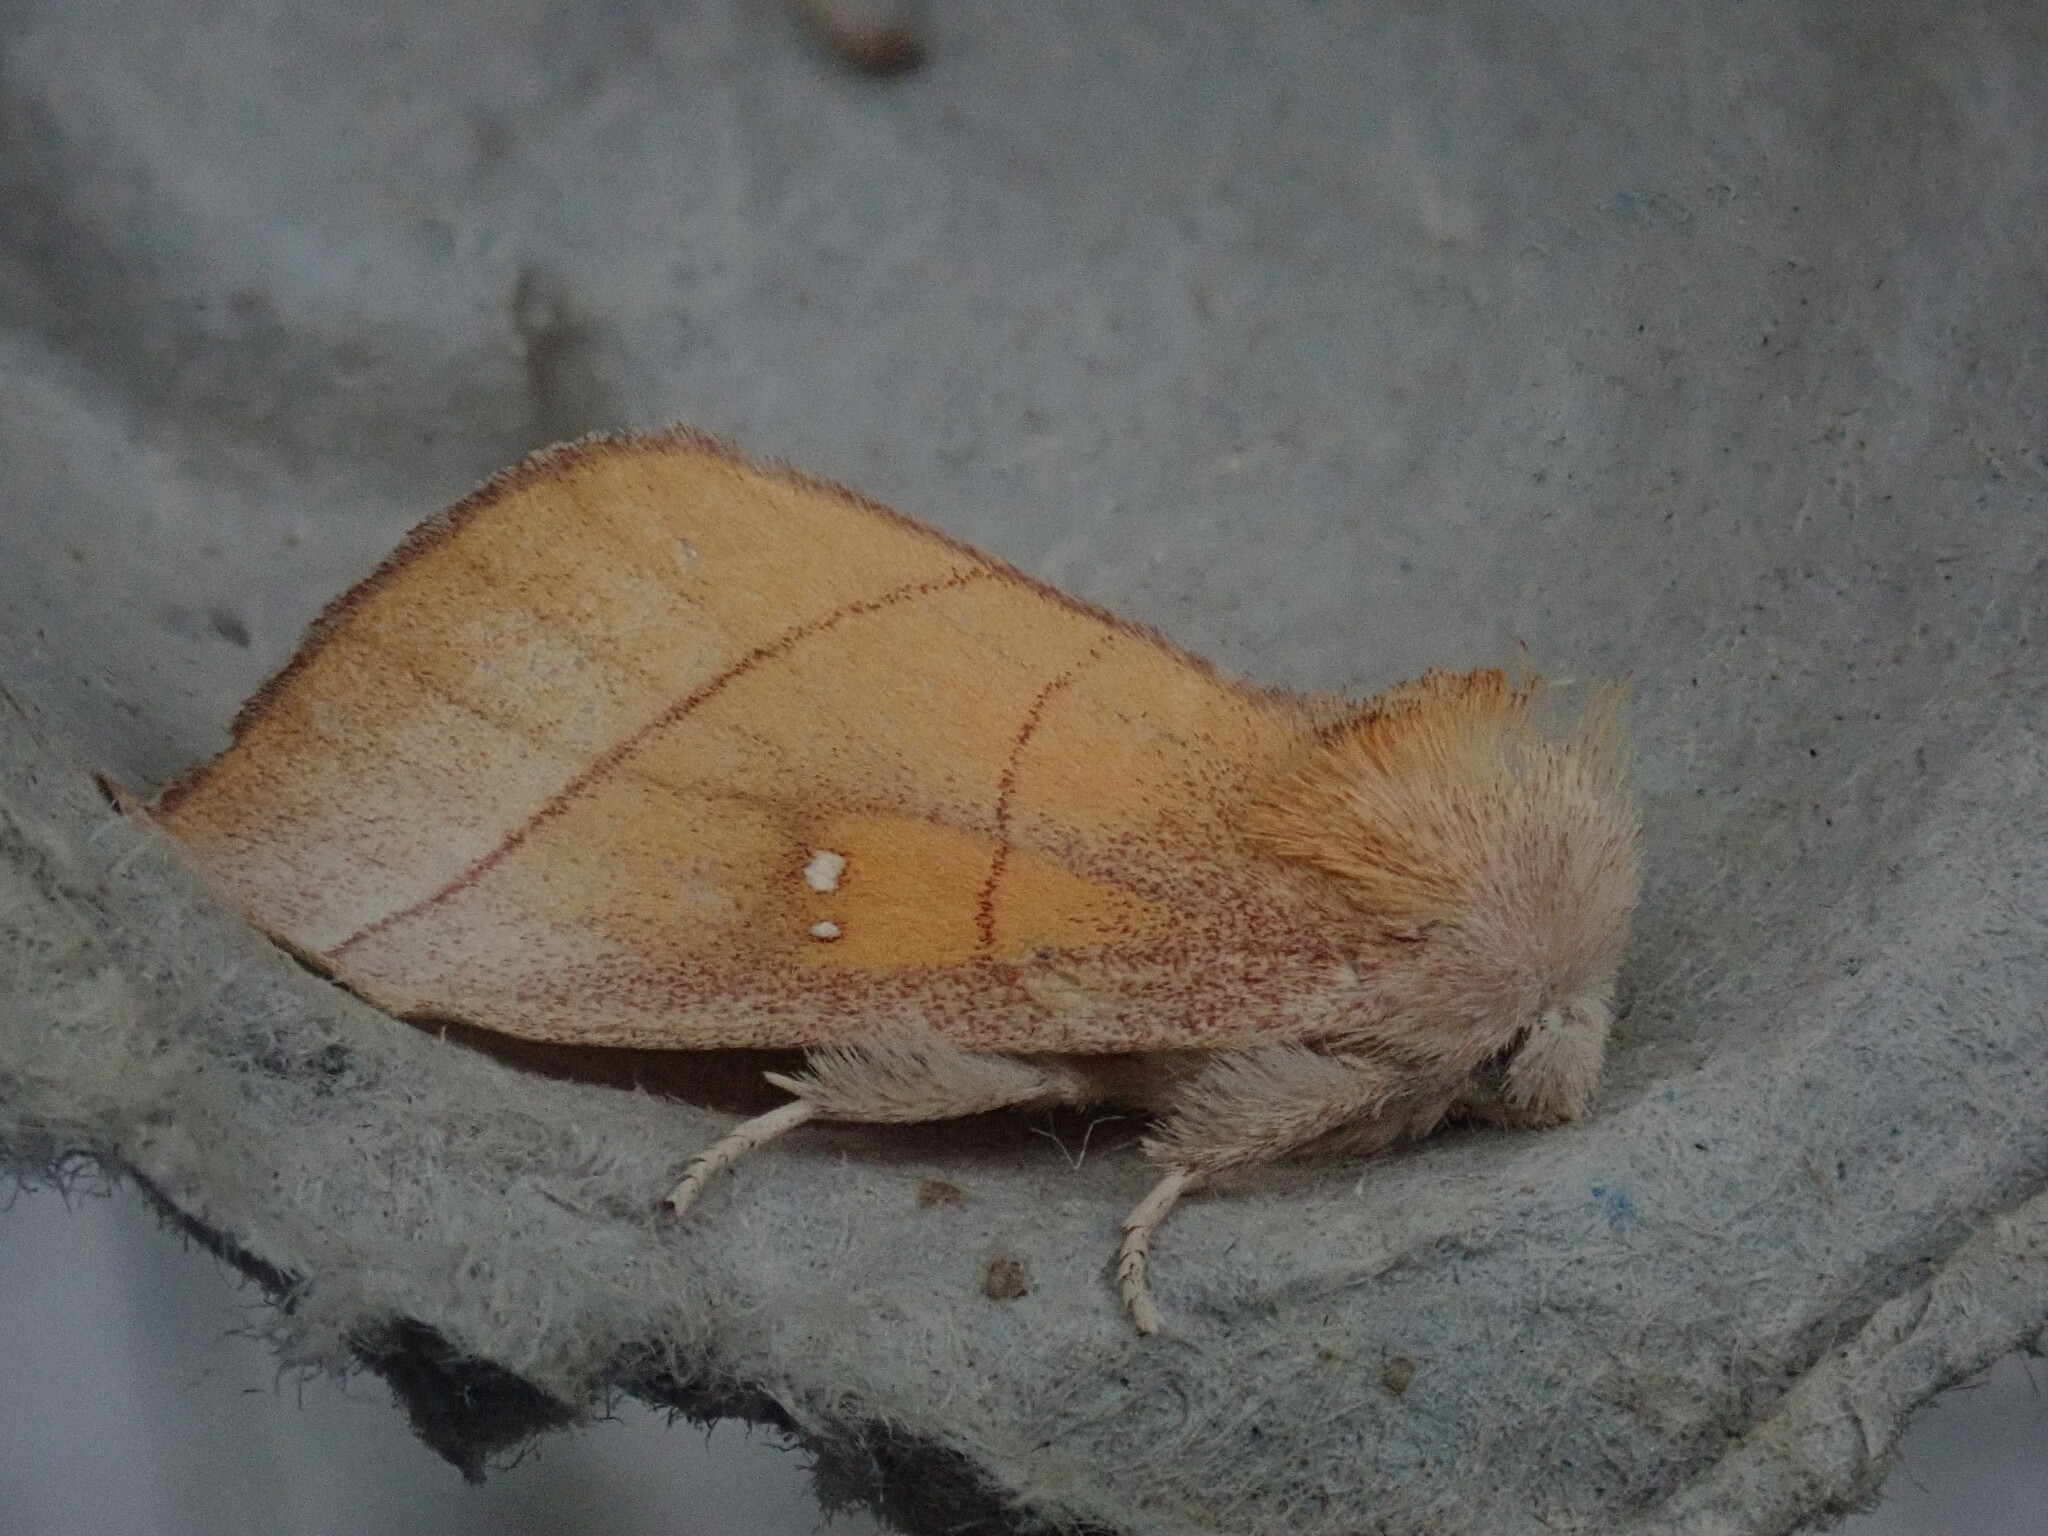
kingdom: Animalia
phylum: Arthropoda
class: Insecta
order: Lepidoptera
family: Notodontidae
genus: Nadata
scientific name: Nadata gibbosa
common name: White-dotted prominent
